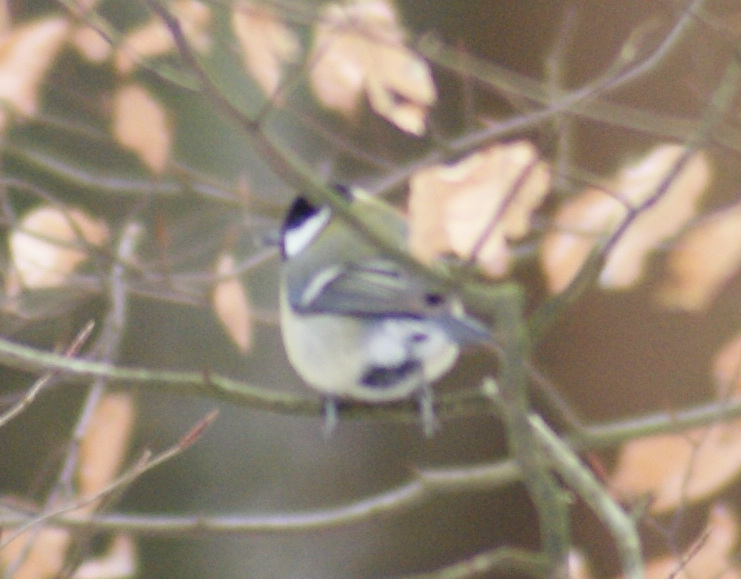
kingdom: Animalia
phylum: Chordata
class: Aves
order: Passeriformes
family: Paridae
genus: Parus
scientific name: Parus major
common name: Great tit
